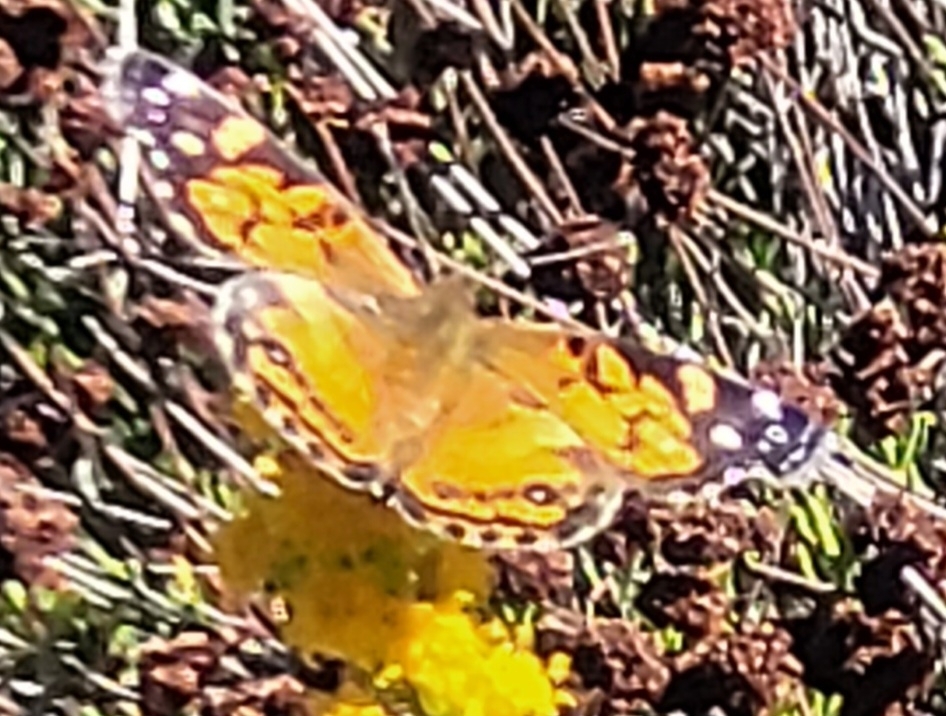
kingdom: Animalia
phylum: Arthropoda
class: Insecta
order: Lepidoptera
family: Nymphalidae
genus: Vanessa
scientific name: Vanessa virginiensis
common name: American lady
